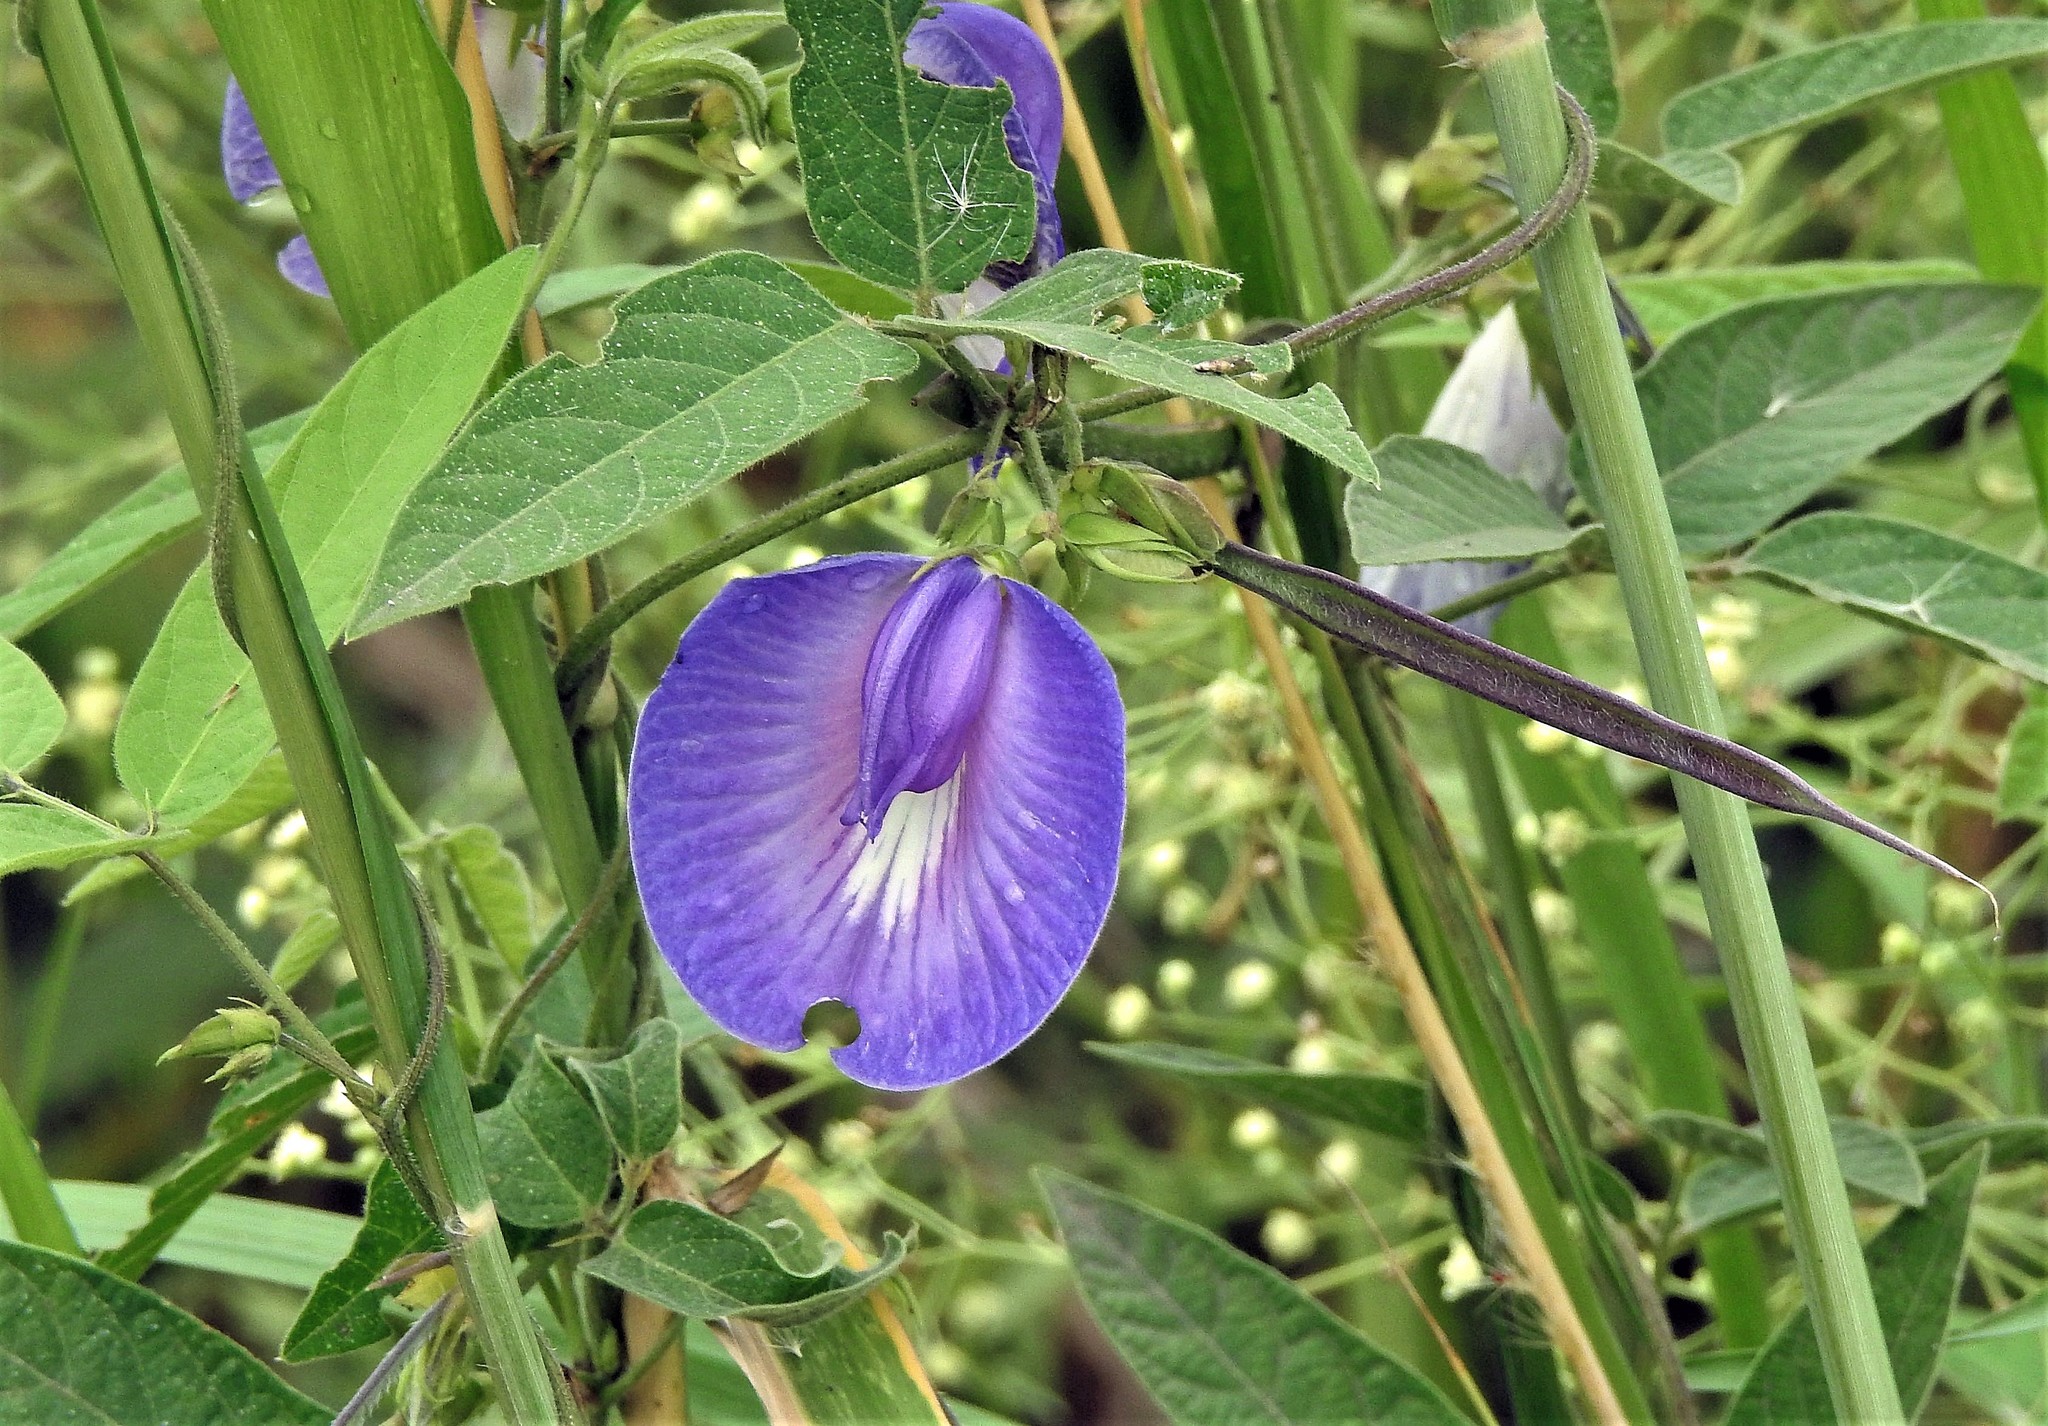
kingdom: Plantae
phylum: Tracheophyta
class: Magnoliopsida
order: Fabales
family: Fabaceae
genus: Centrosema
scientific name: Centrosema virginianum
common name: Butterfly-pea
